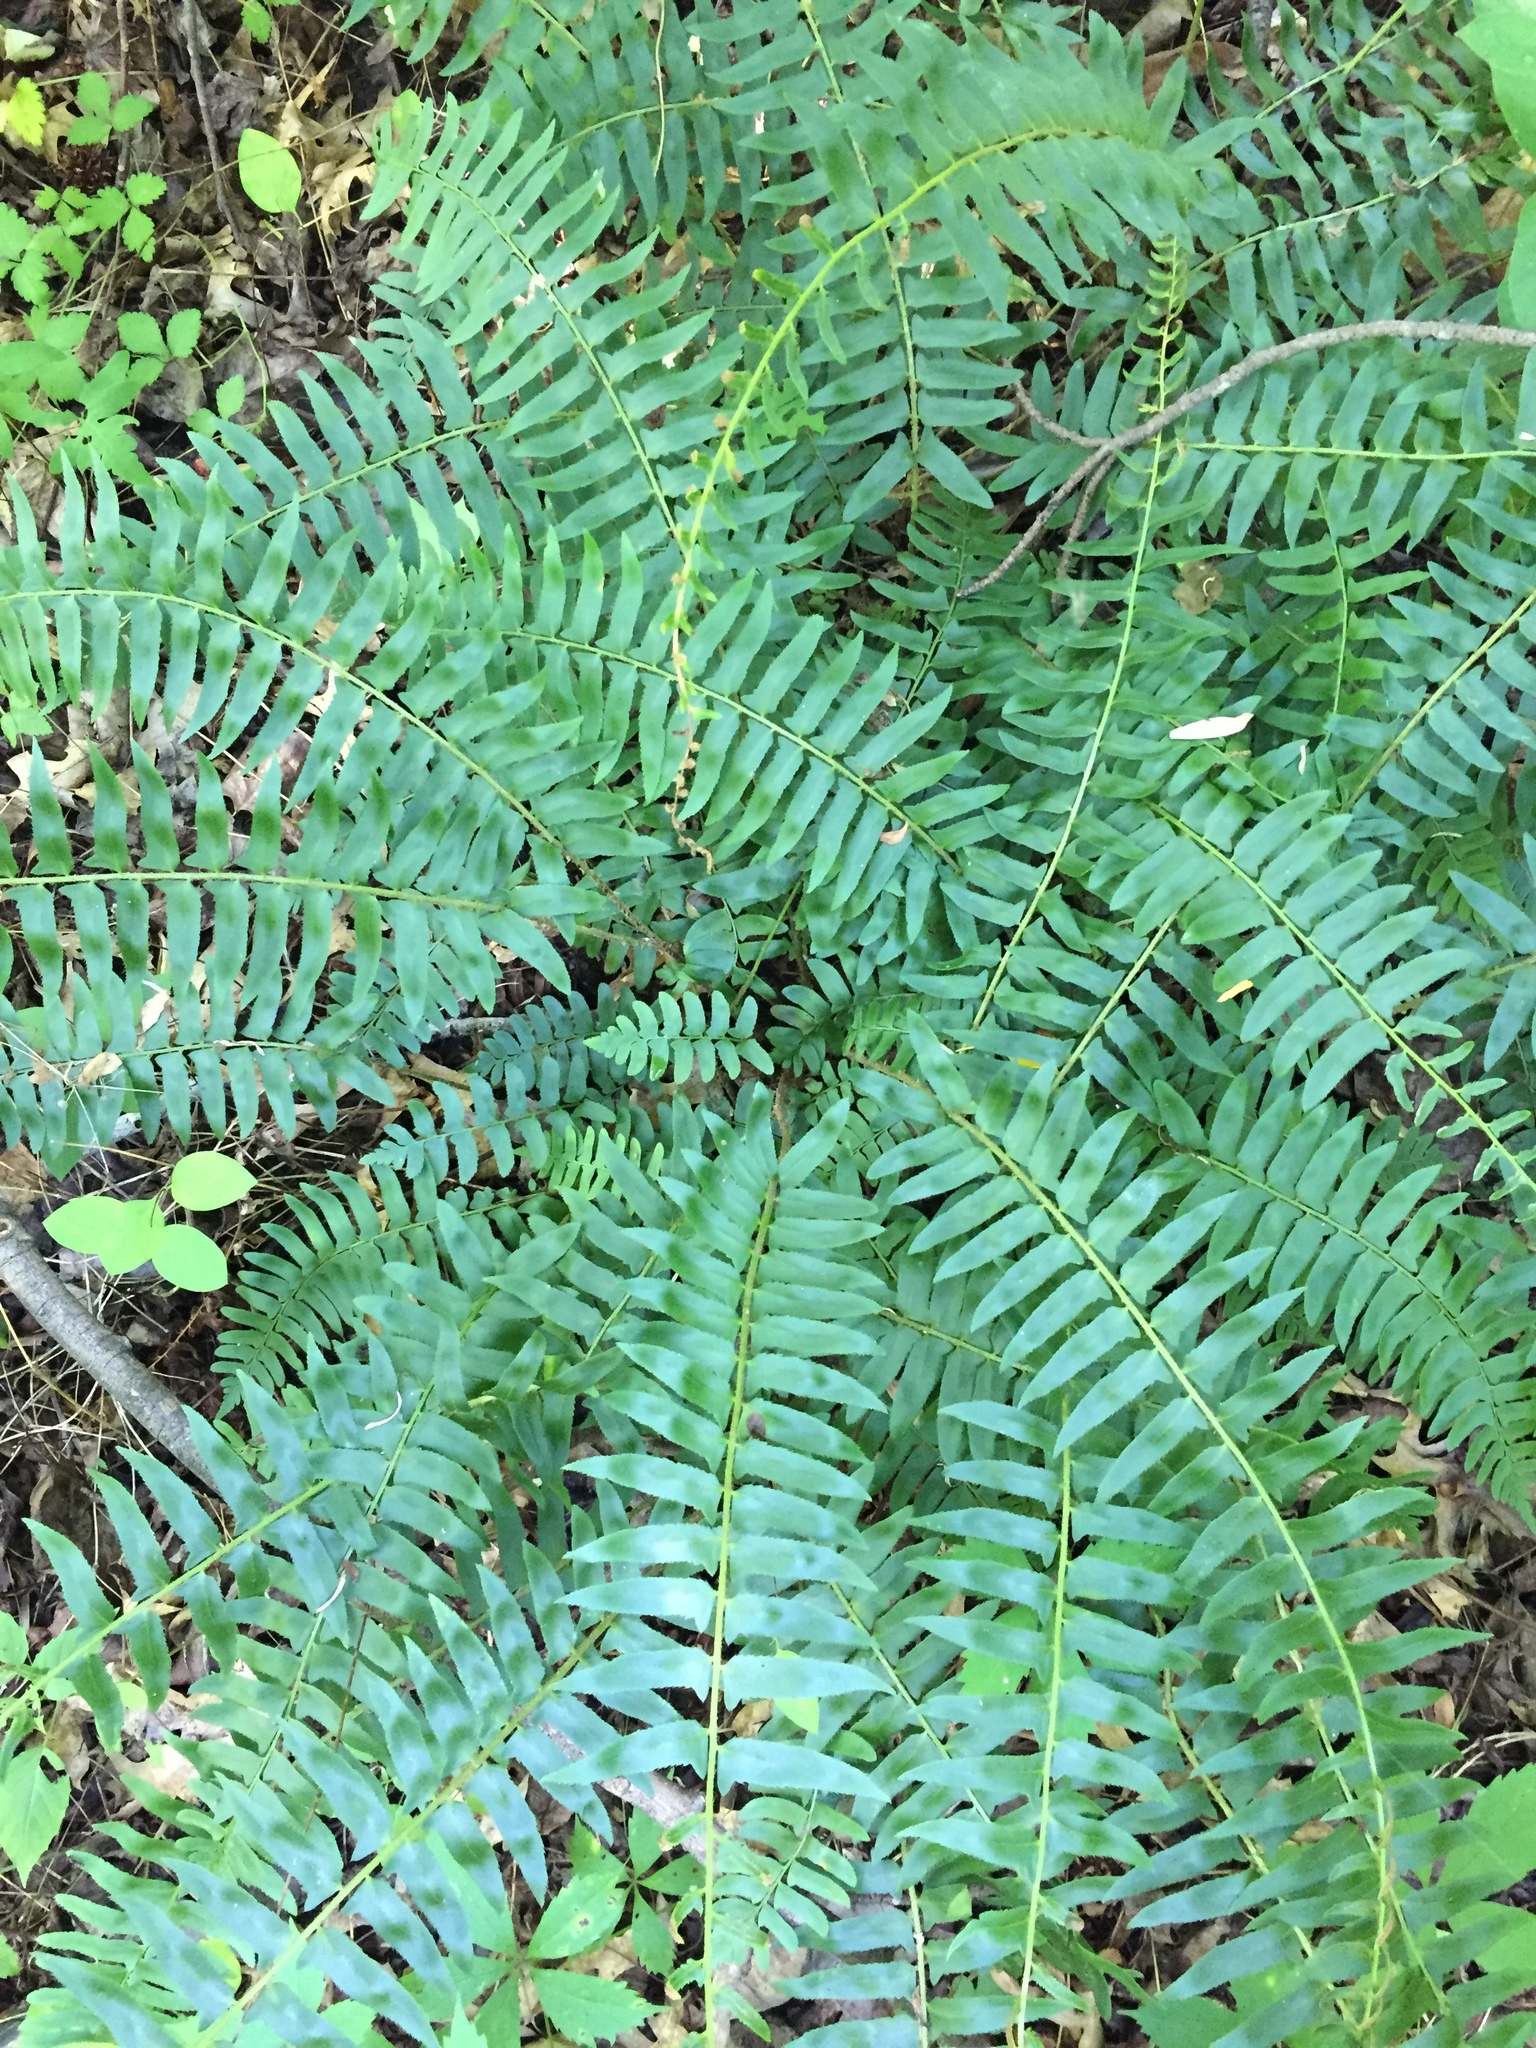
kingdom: Plantae
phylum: Tracheophyta
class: Polypodiopsida
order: Polypodiales
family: Dryopteridaceae
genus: Polystichum
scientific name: Polystichum acrostichoides
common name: Christmas fern
